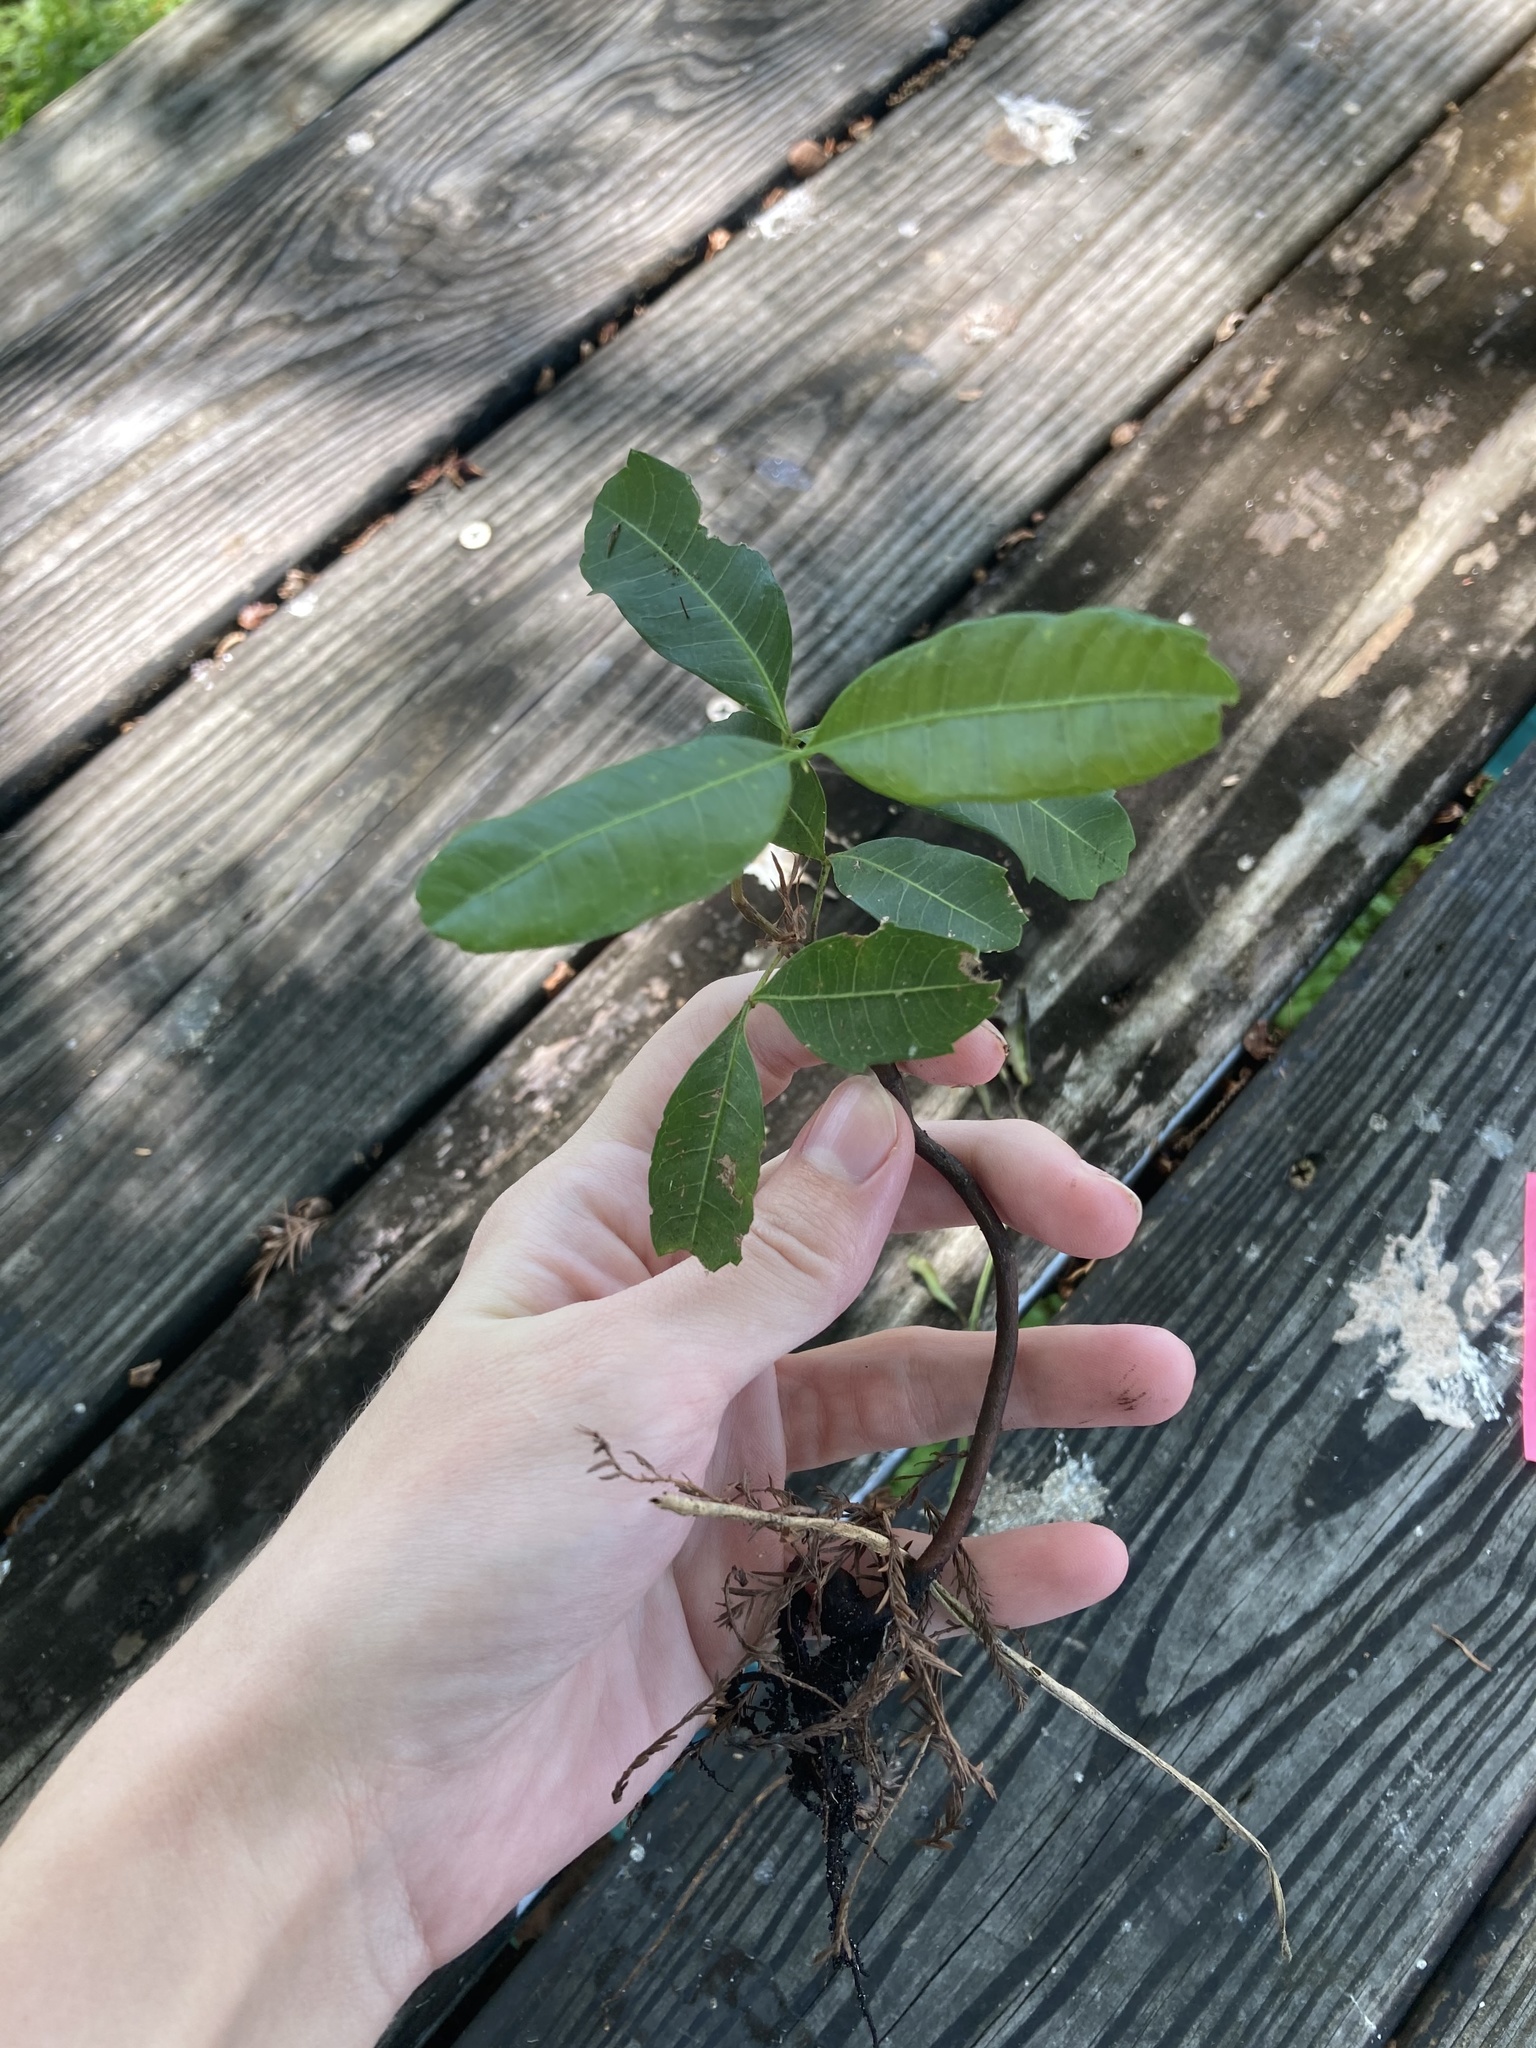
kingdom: Plantae
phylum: Tracheophyta
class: Magnoliopsida
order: Sapindales
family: Anacardiaceae
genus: Schinus
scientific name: Schinus terebinthifolia
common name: Brazilian peppertree
